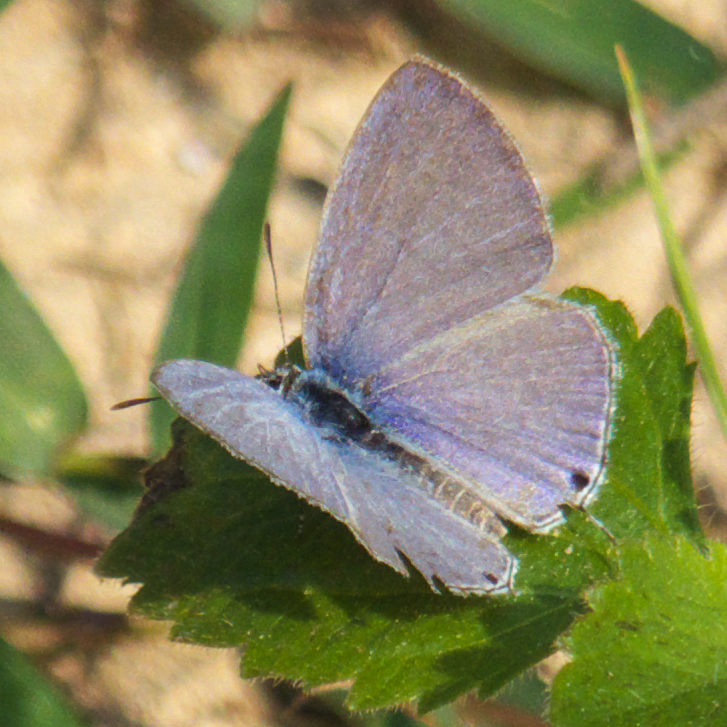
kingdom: Animalia
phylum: Arthropoda
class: Insecta
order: Lepidoptera
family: Lycaenidae
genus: Catochrysops
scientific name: Catochrysops strabo
